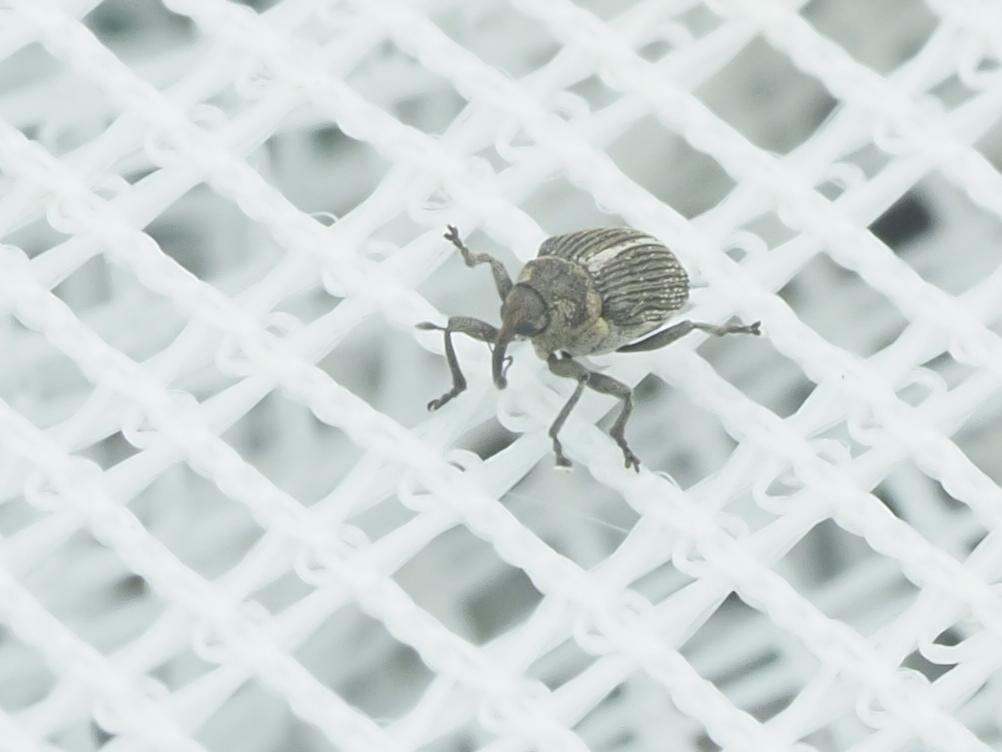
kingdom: Animalia
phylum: Arthropoda
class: Insecta
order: Coleoptera
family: Curculionidae
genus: Ceutorhynchus
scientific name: Ceutorhynchus typhae
